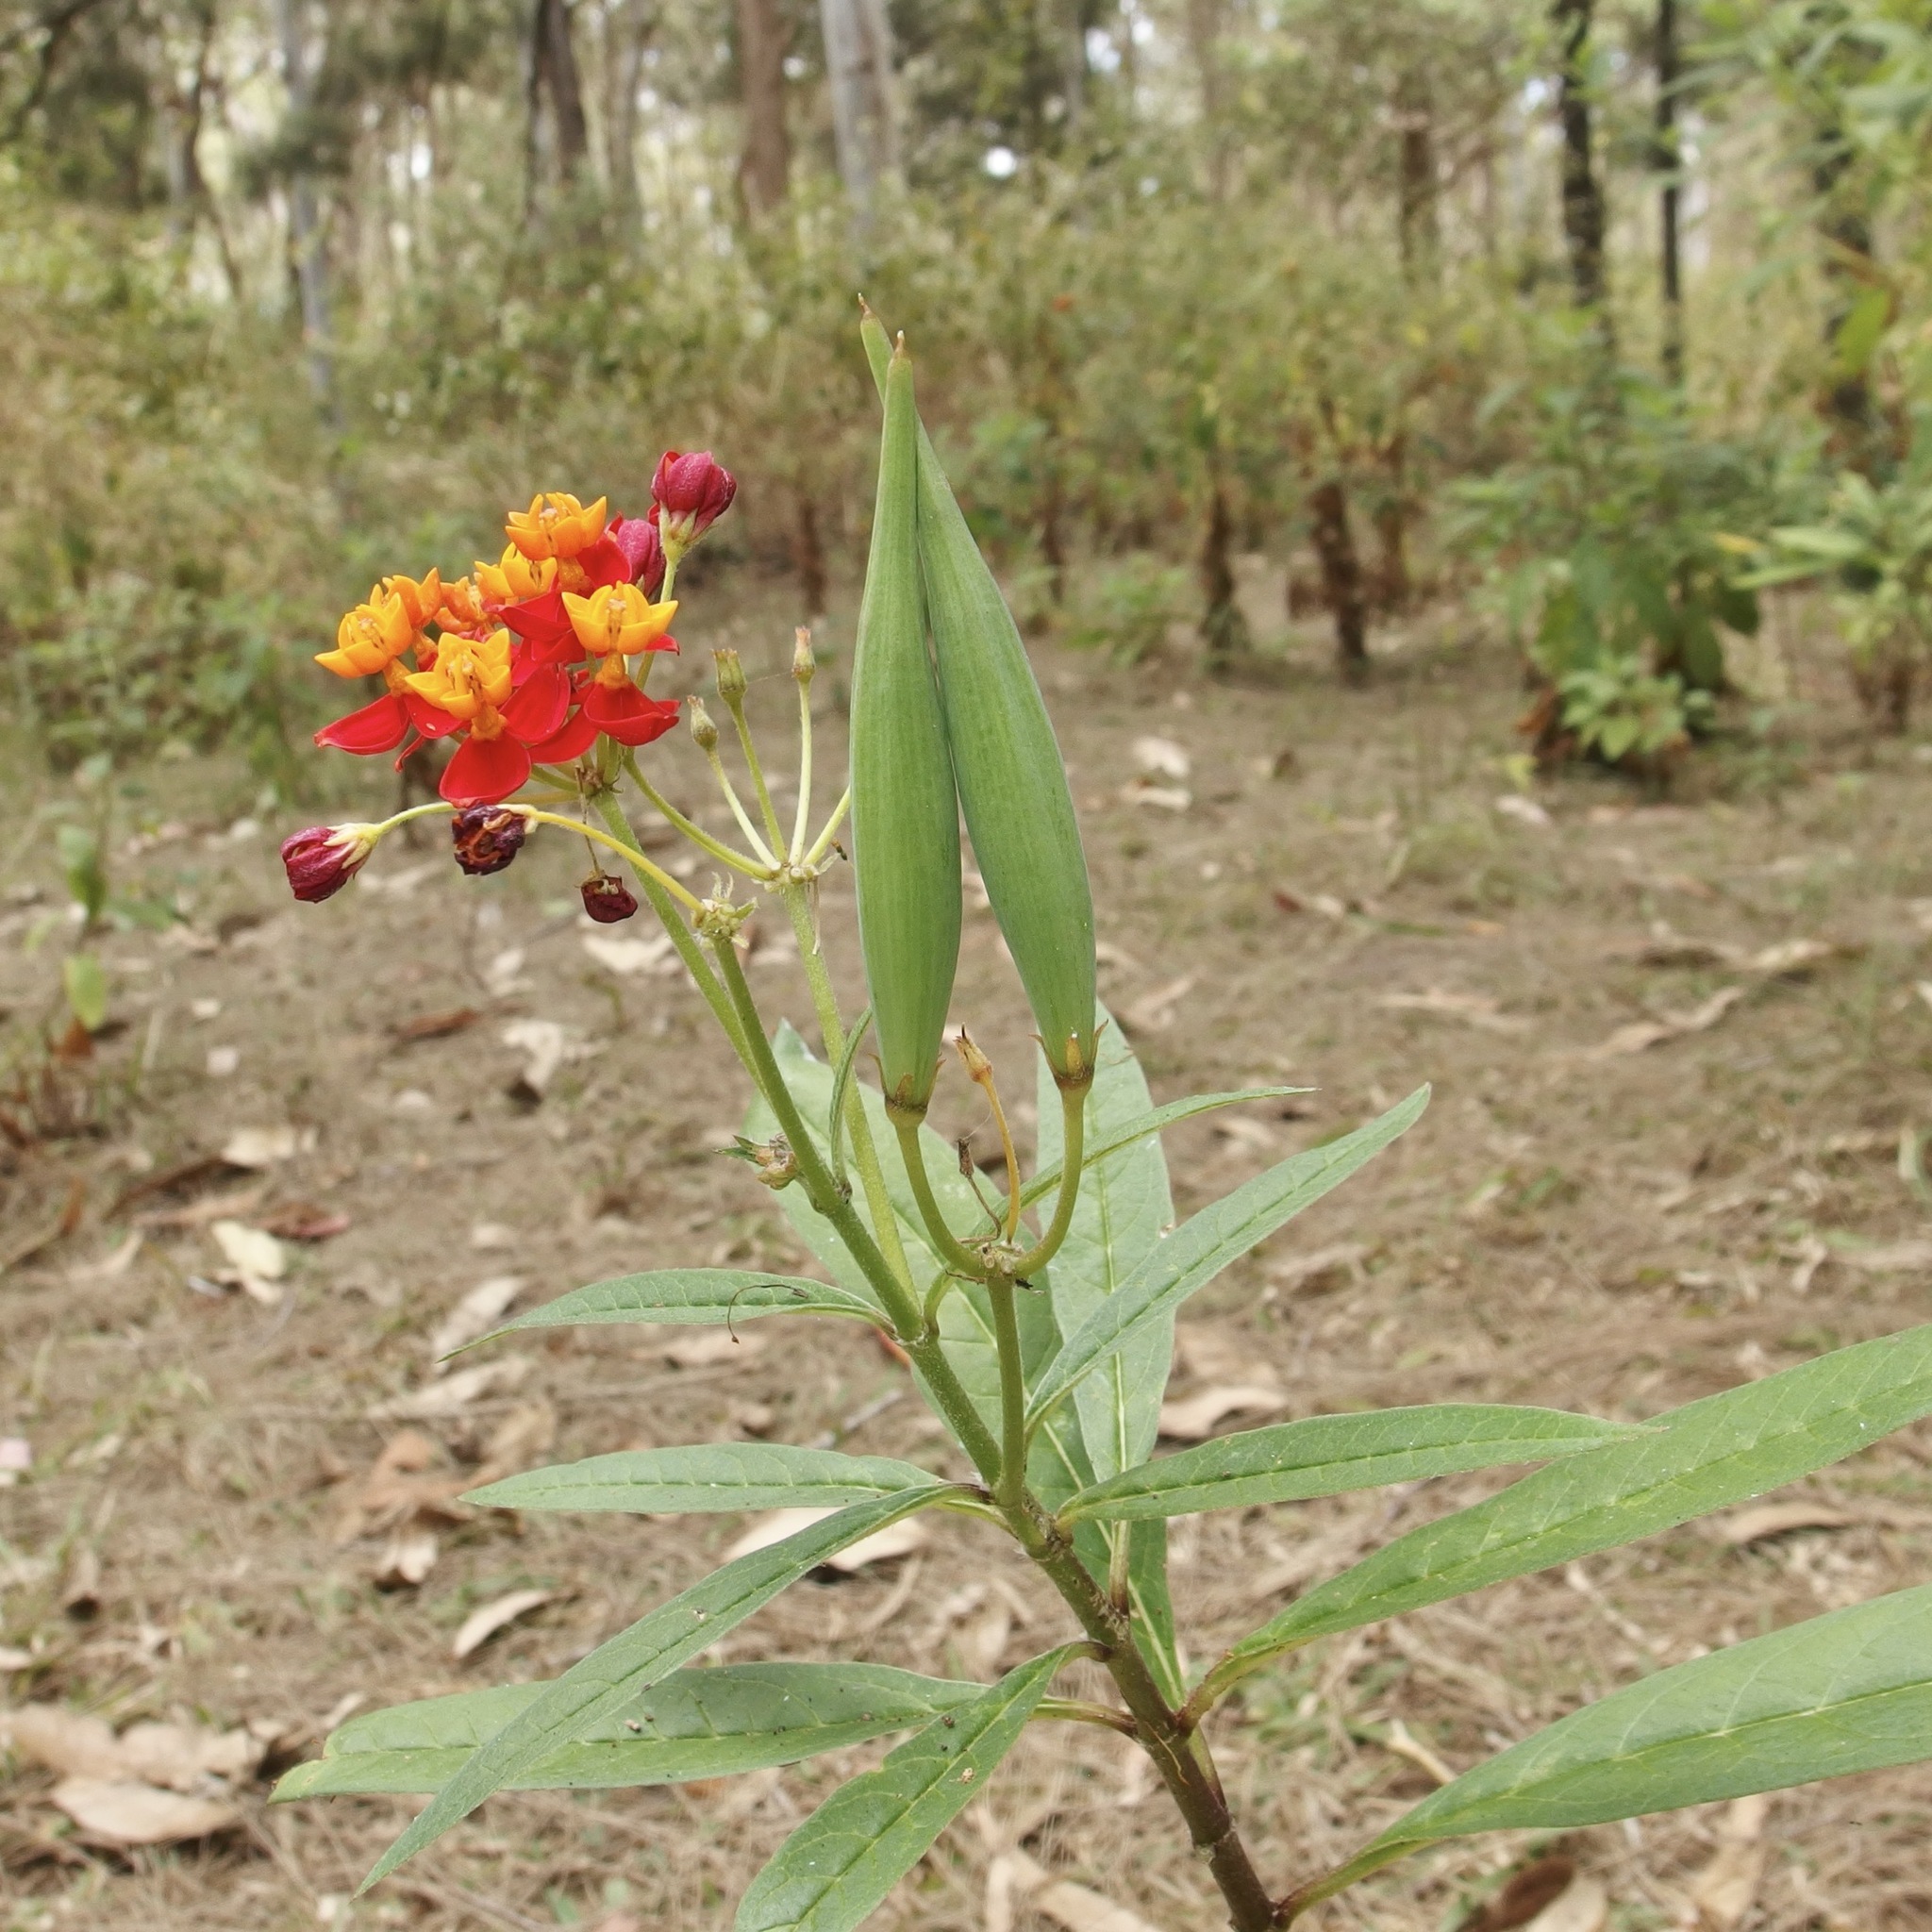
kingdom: Plantae
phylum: Tracheophyta
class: Magnoliopsida
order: Gentianales
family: Apocynaceae
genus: Asclepias
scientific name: Asclepias curassavica
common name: Bloodflower
